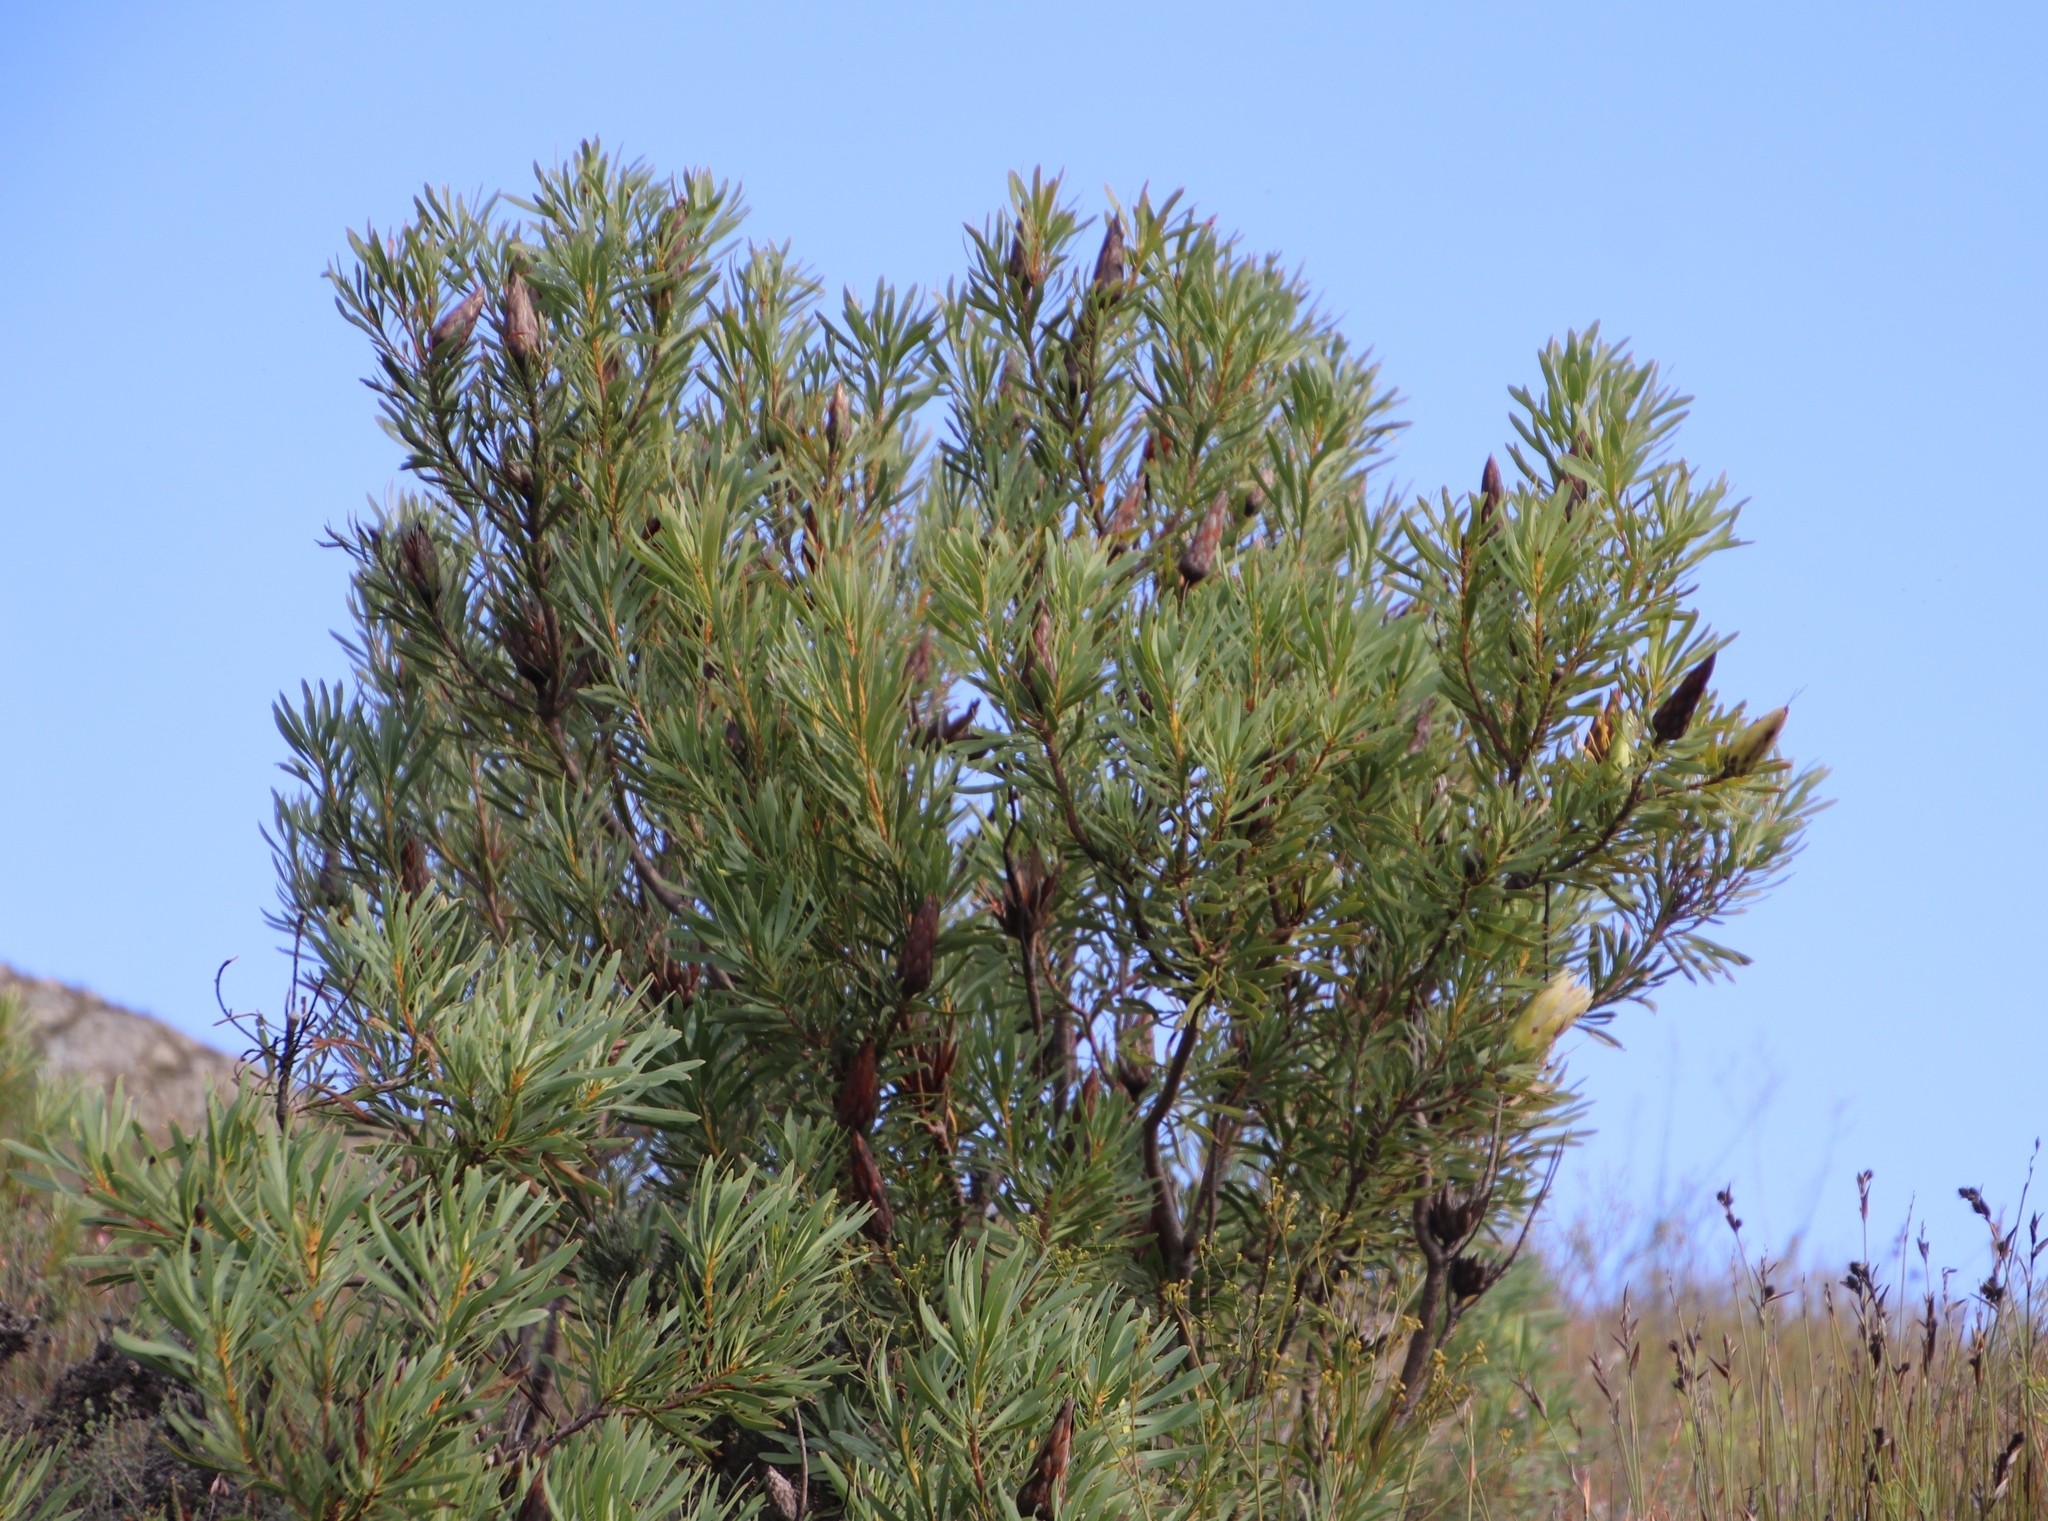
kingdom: Plantae
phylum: Tracheophyta
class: Magnoliopsida
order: Proteales
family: Proteaceae
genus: Protea
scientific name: Protea repens
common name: Sugarbush
